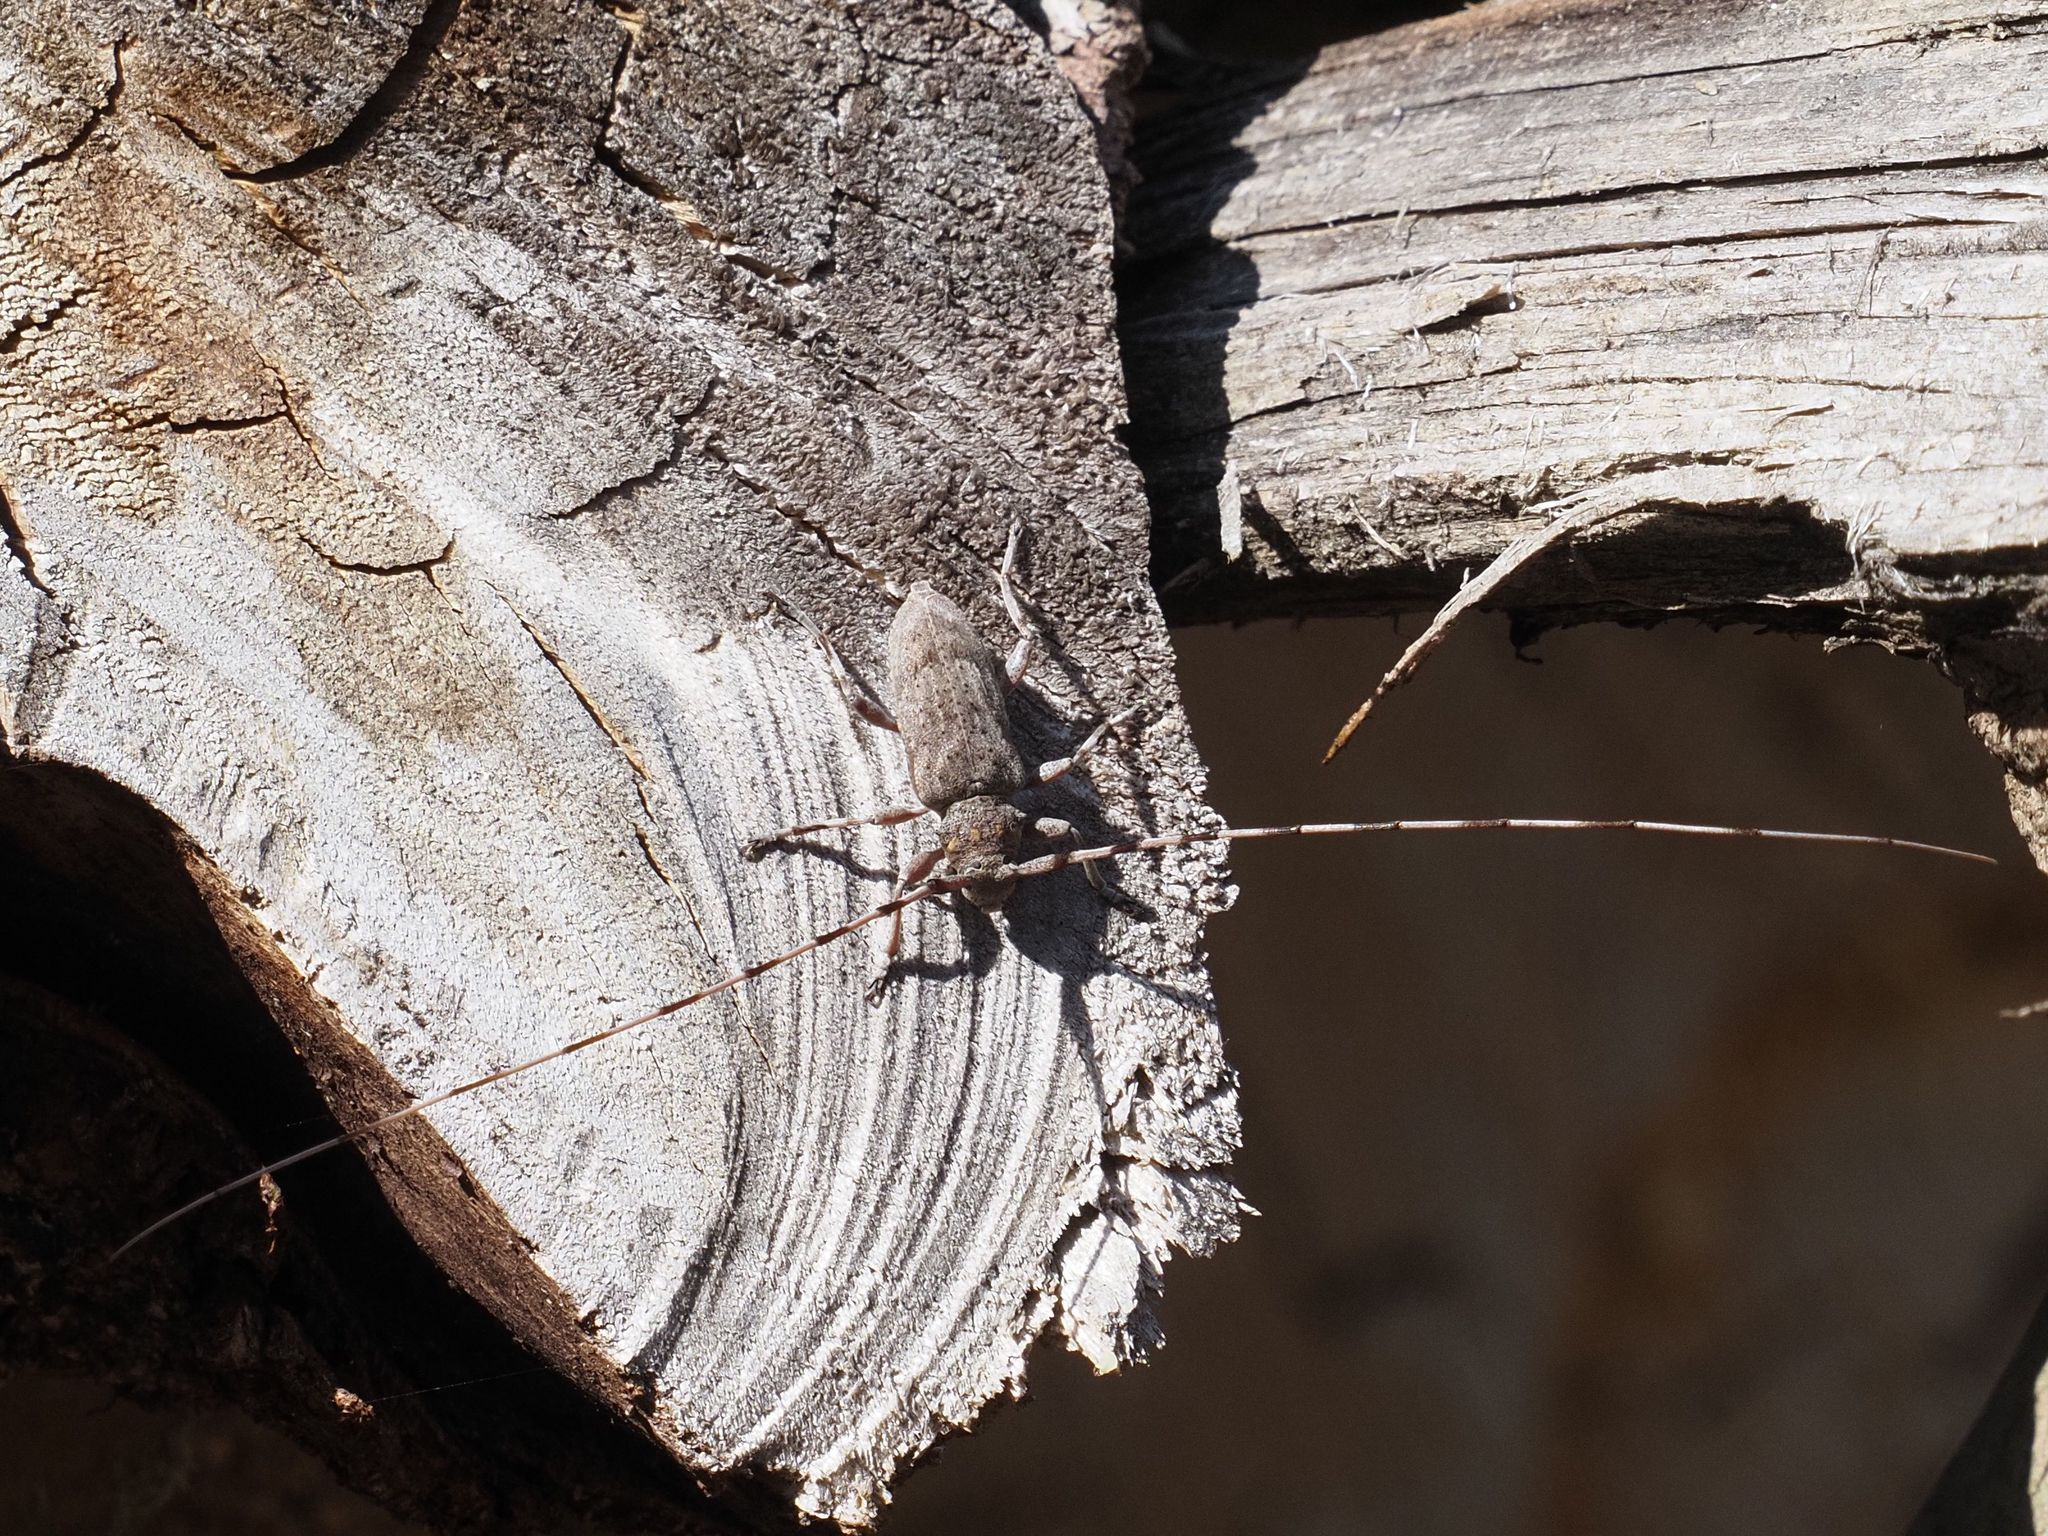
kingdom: Animalia
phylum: Arthropoda
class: Insecta
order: Coleoptera
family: Cerambycidae
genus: Acanthocinus
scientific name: Acanthocinus aedilis
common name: Timberman beetle
